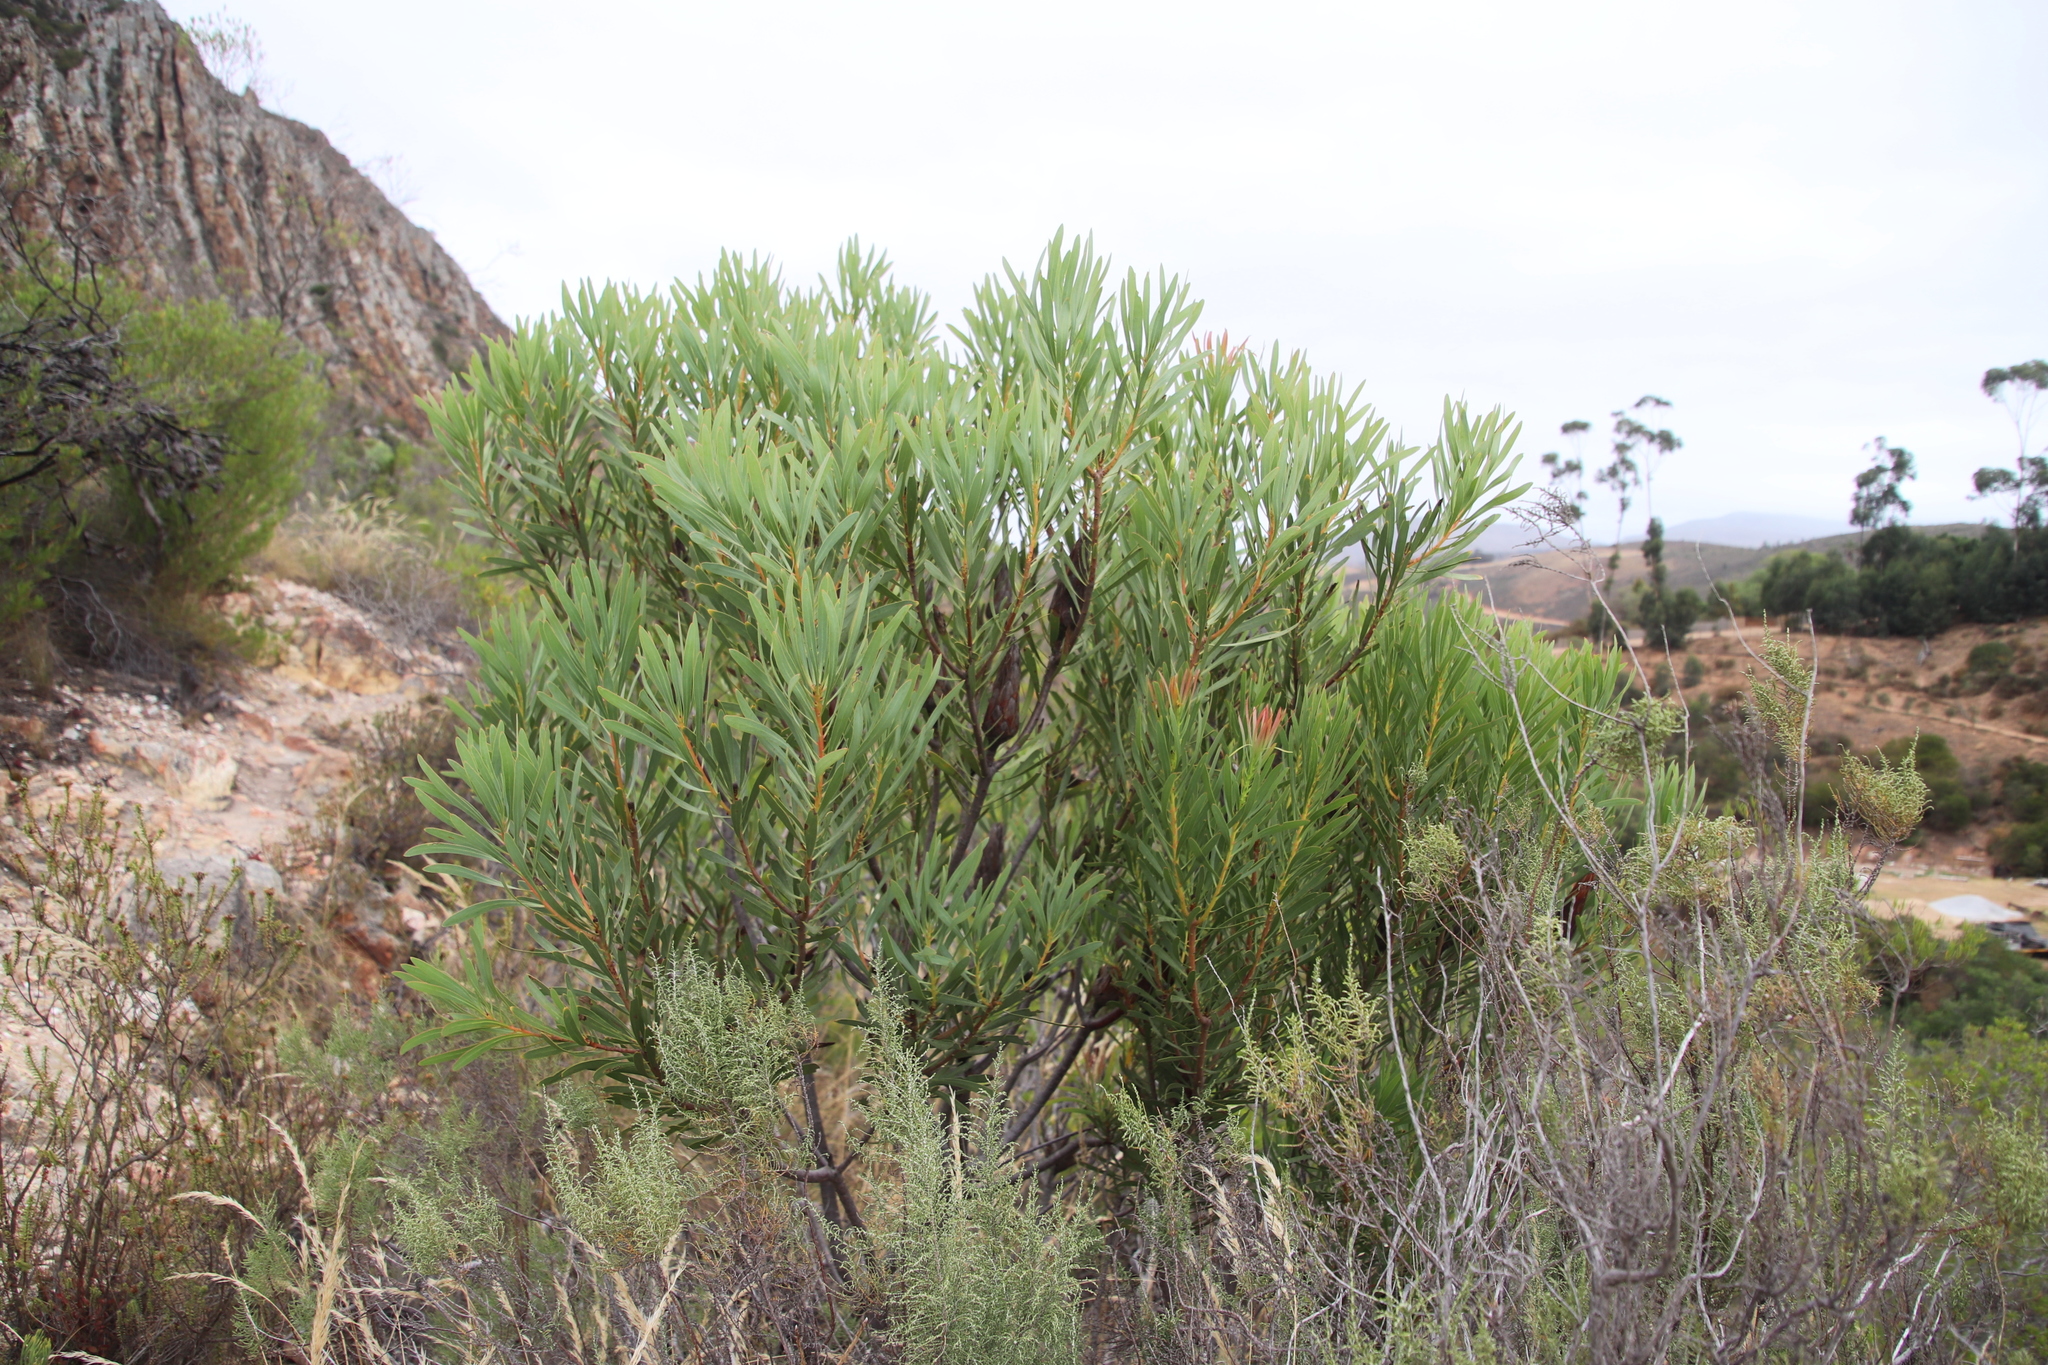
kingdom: Plantae
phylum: Tracheophyta
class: Magnoliopsida
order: Proteales
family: Proteaceae
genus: Protea
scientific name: Protea repens
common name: Sugarbush
